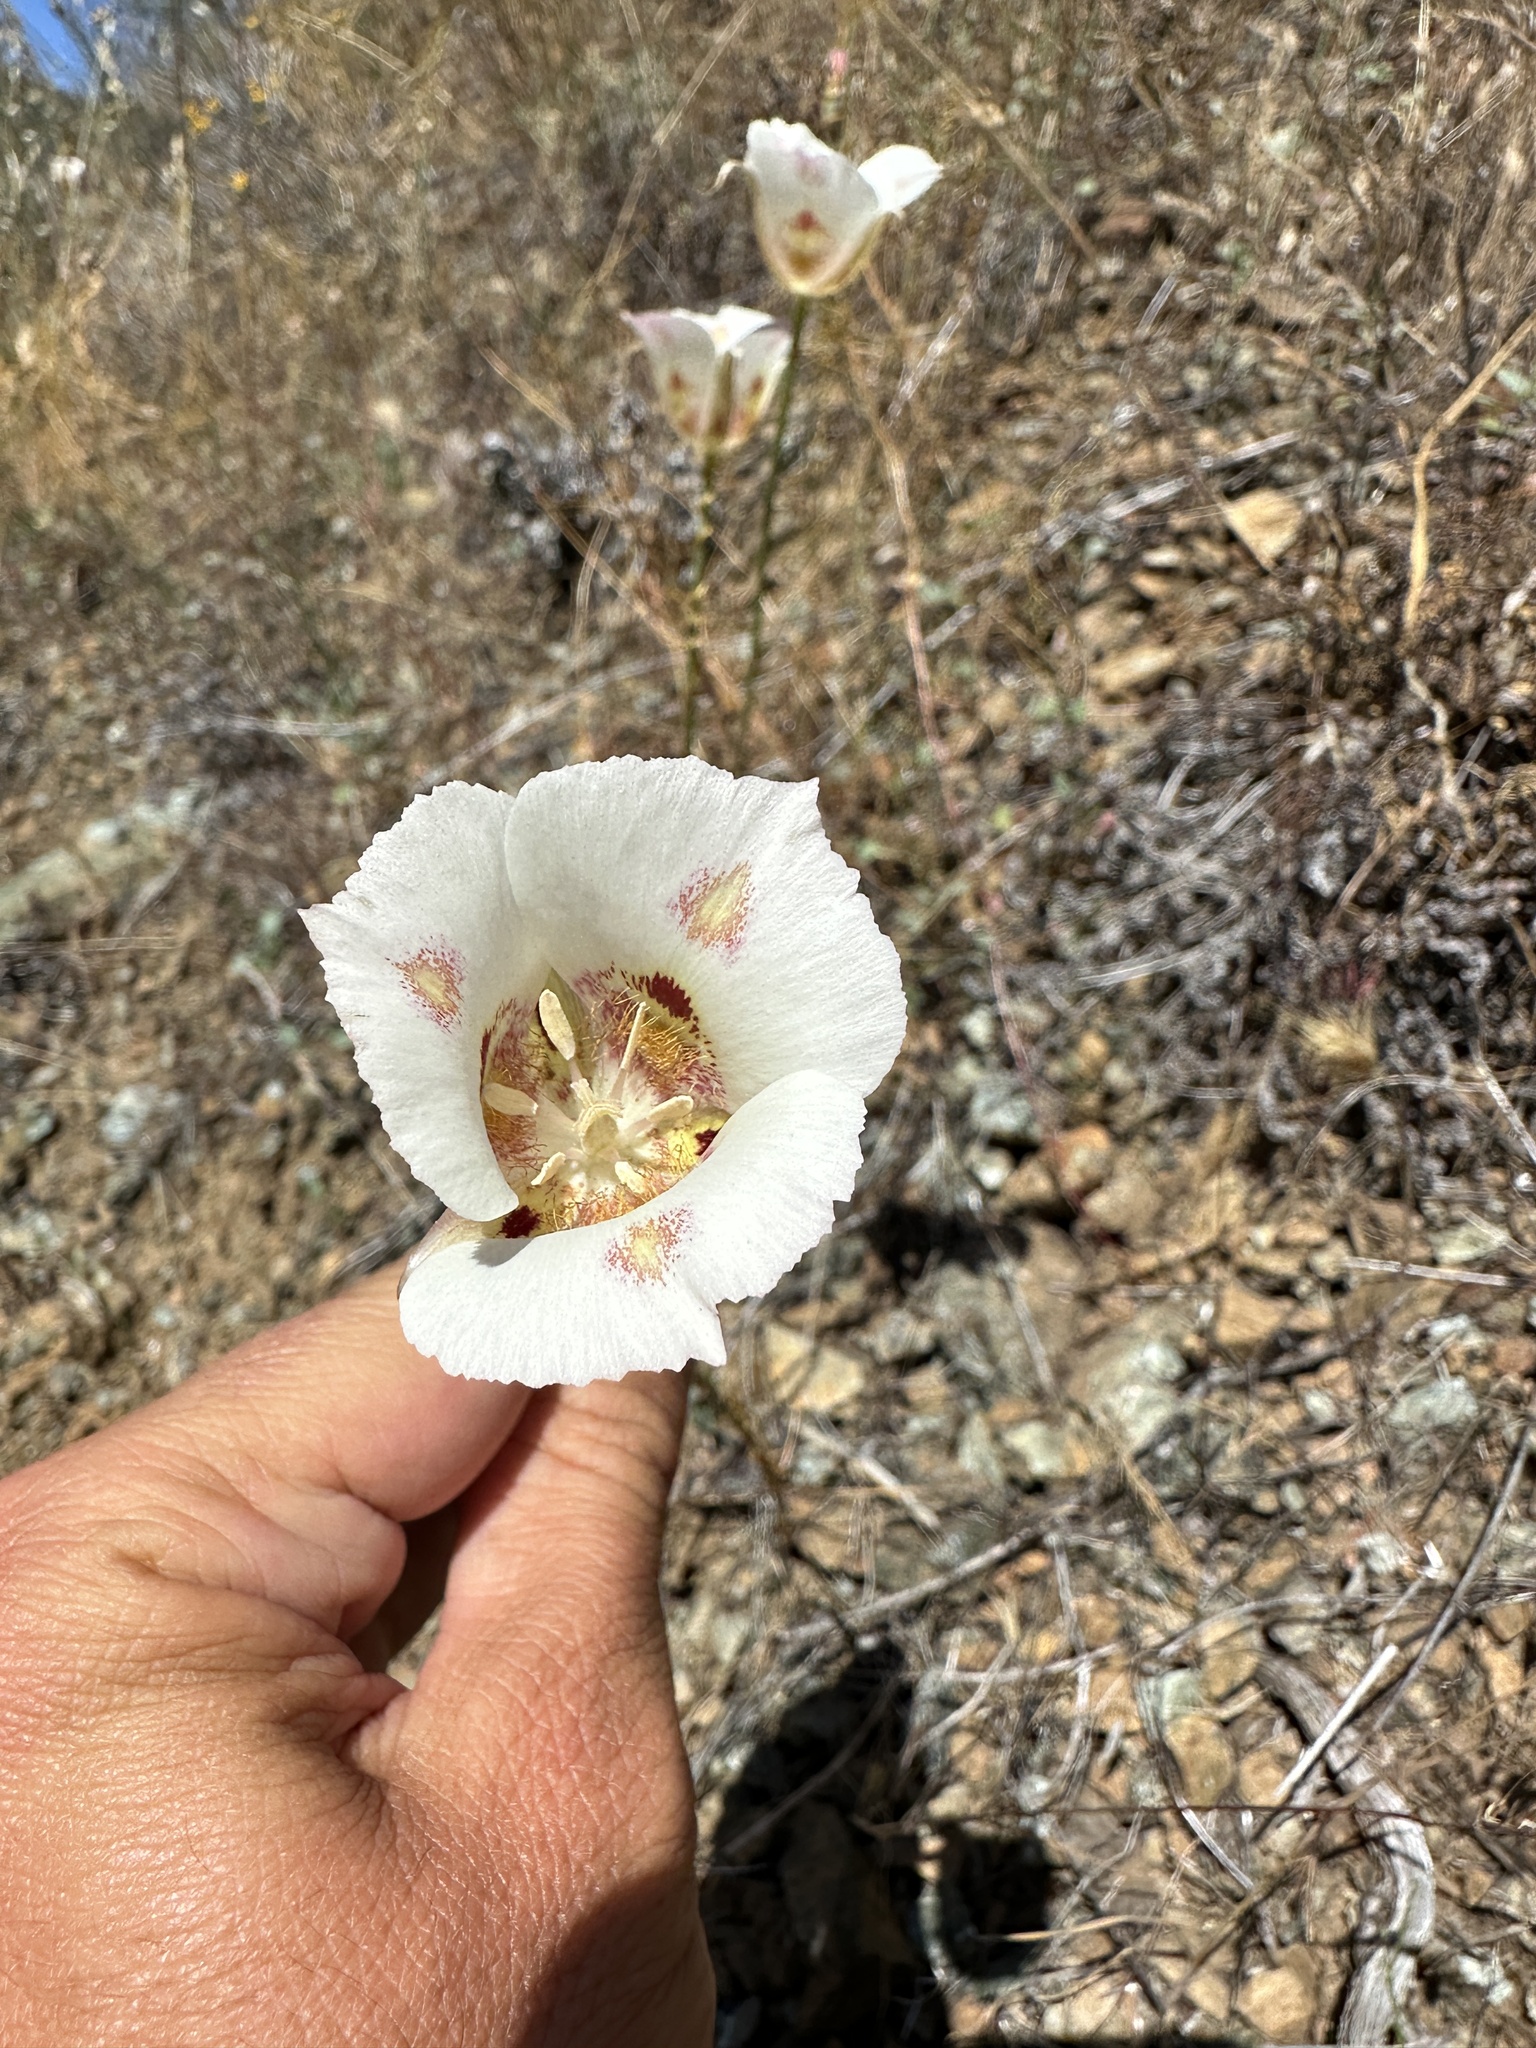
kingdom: Plantae
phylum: Tracheophyta
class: Liliopsida
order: Liliales
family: Liliaceae
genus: Calochortus
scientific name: Calochortus venustus
